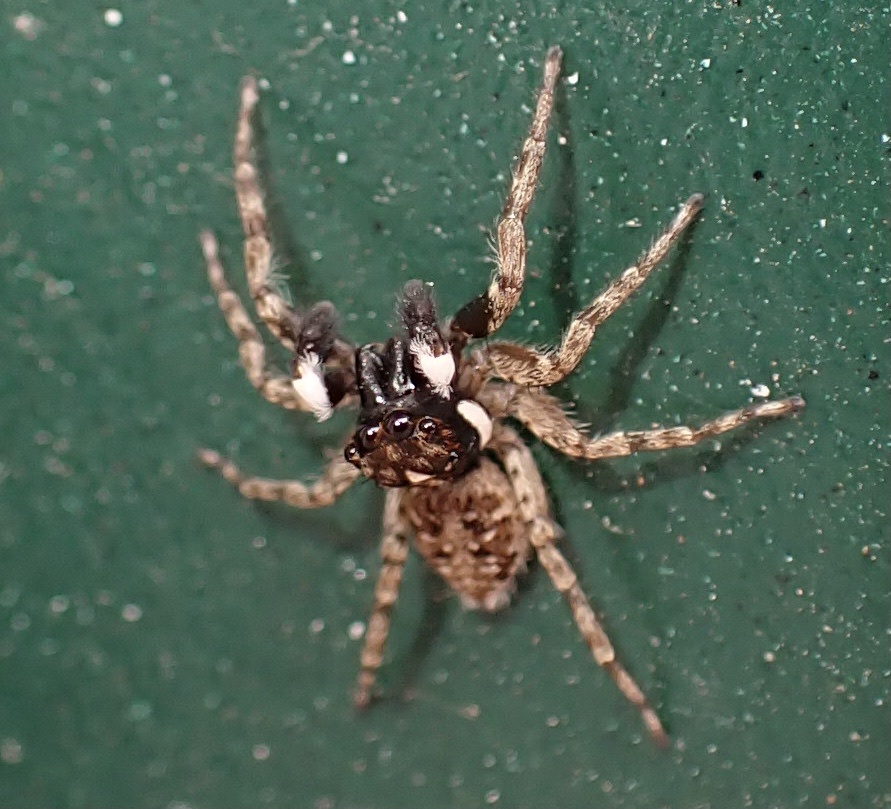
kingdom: Animalia
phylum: Arthropoda
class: Arachnida
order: Araneae
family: Salticidae
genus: Menemerus
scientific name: Menemerus semilimbatus
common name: Jumping spider
